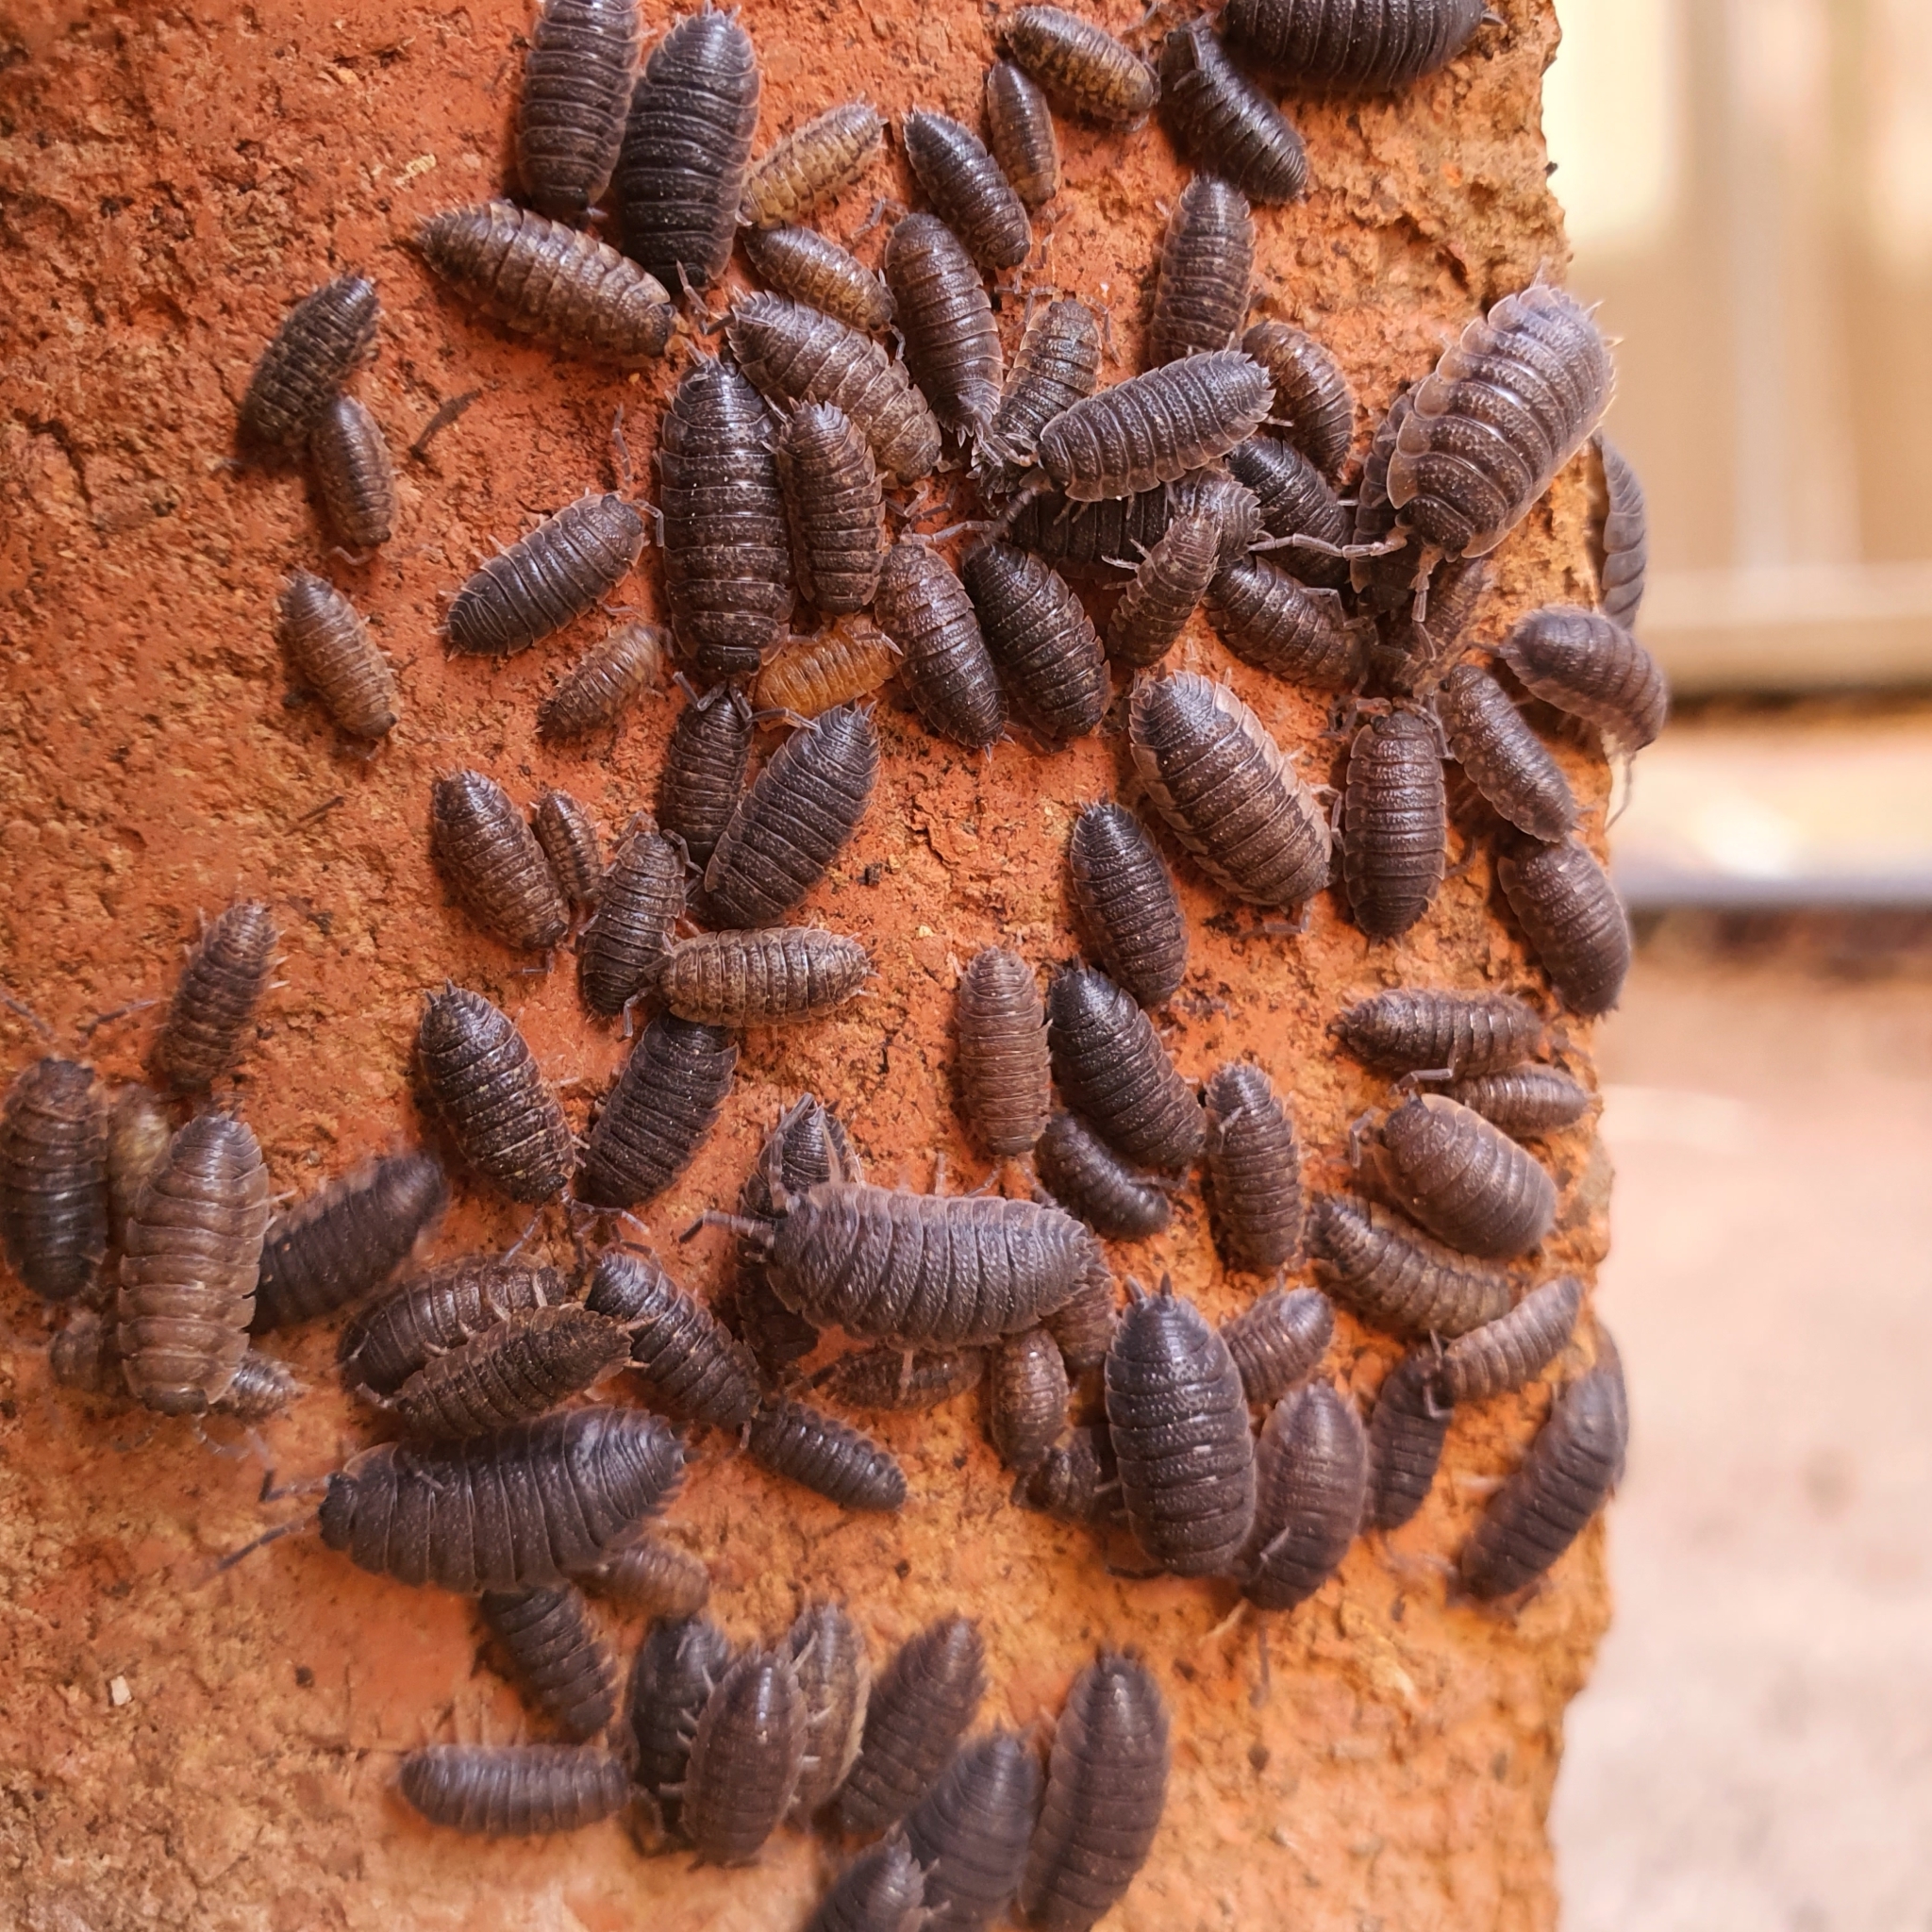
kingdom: Animalia
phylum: Arthropoda
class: Malacostraca
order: Isopoda
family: Porcellionidae
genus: Porcellio
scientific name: Porcellio scaber
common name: Common rough woodlouse
